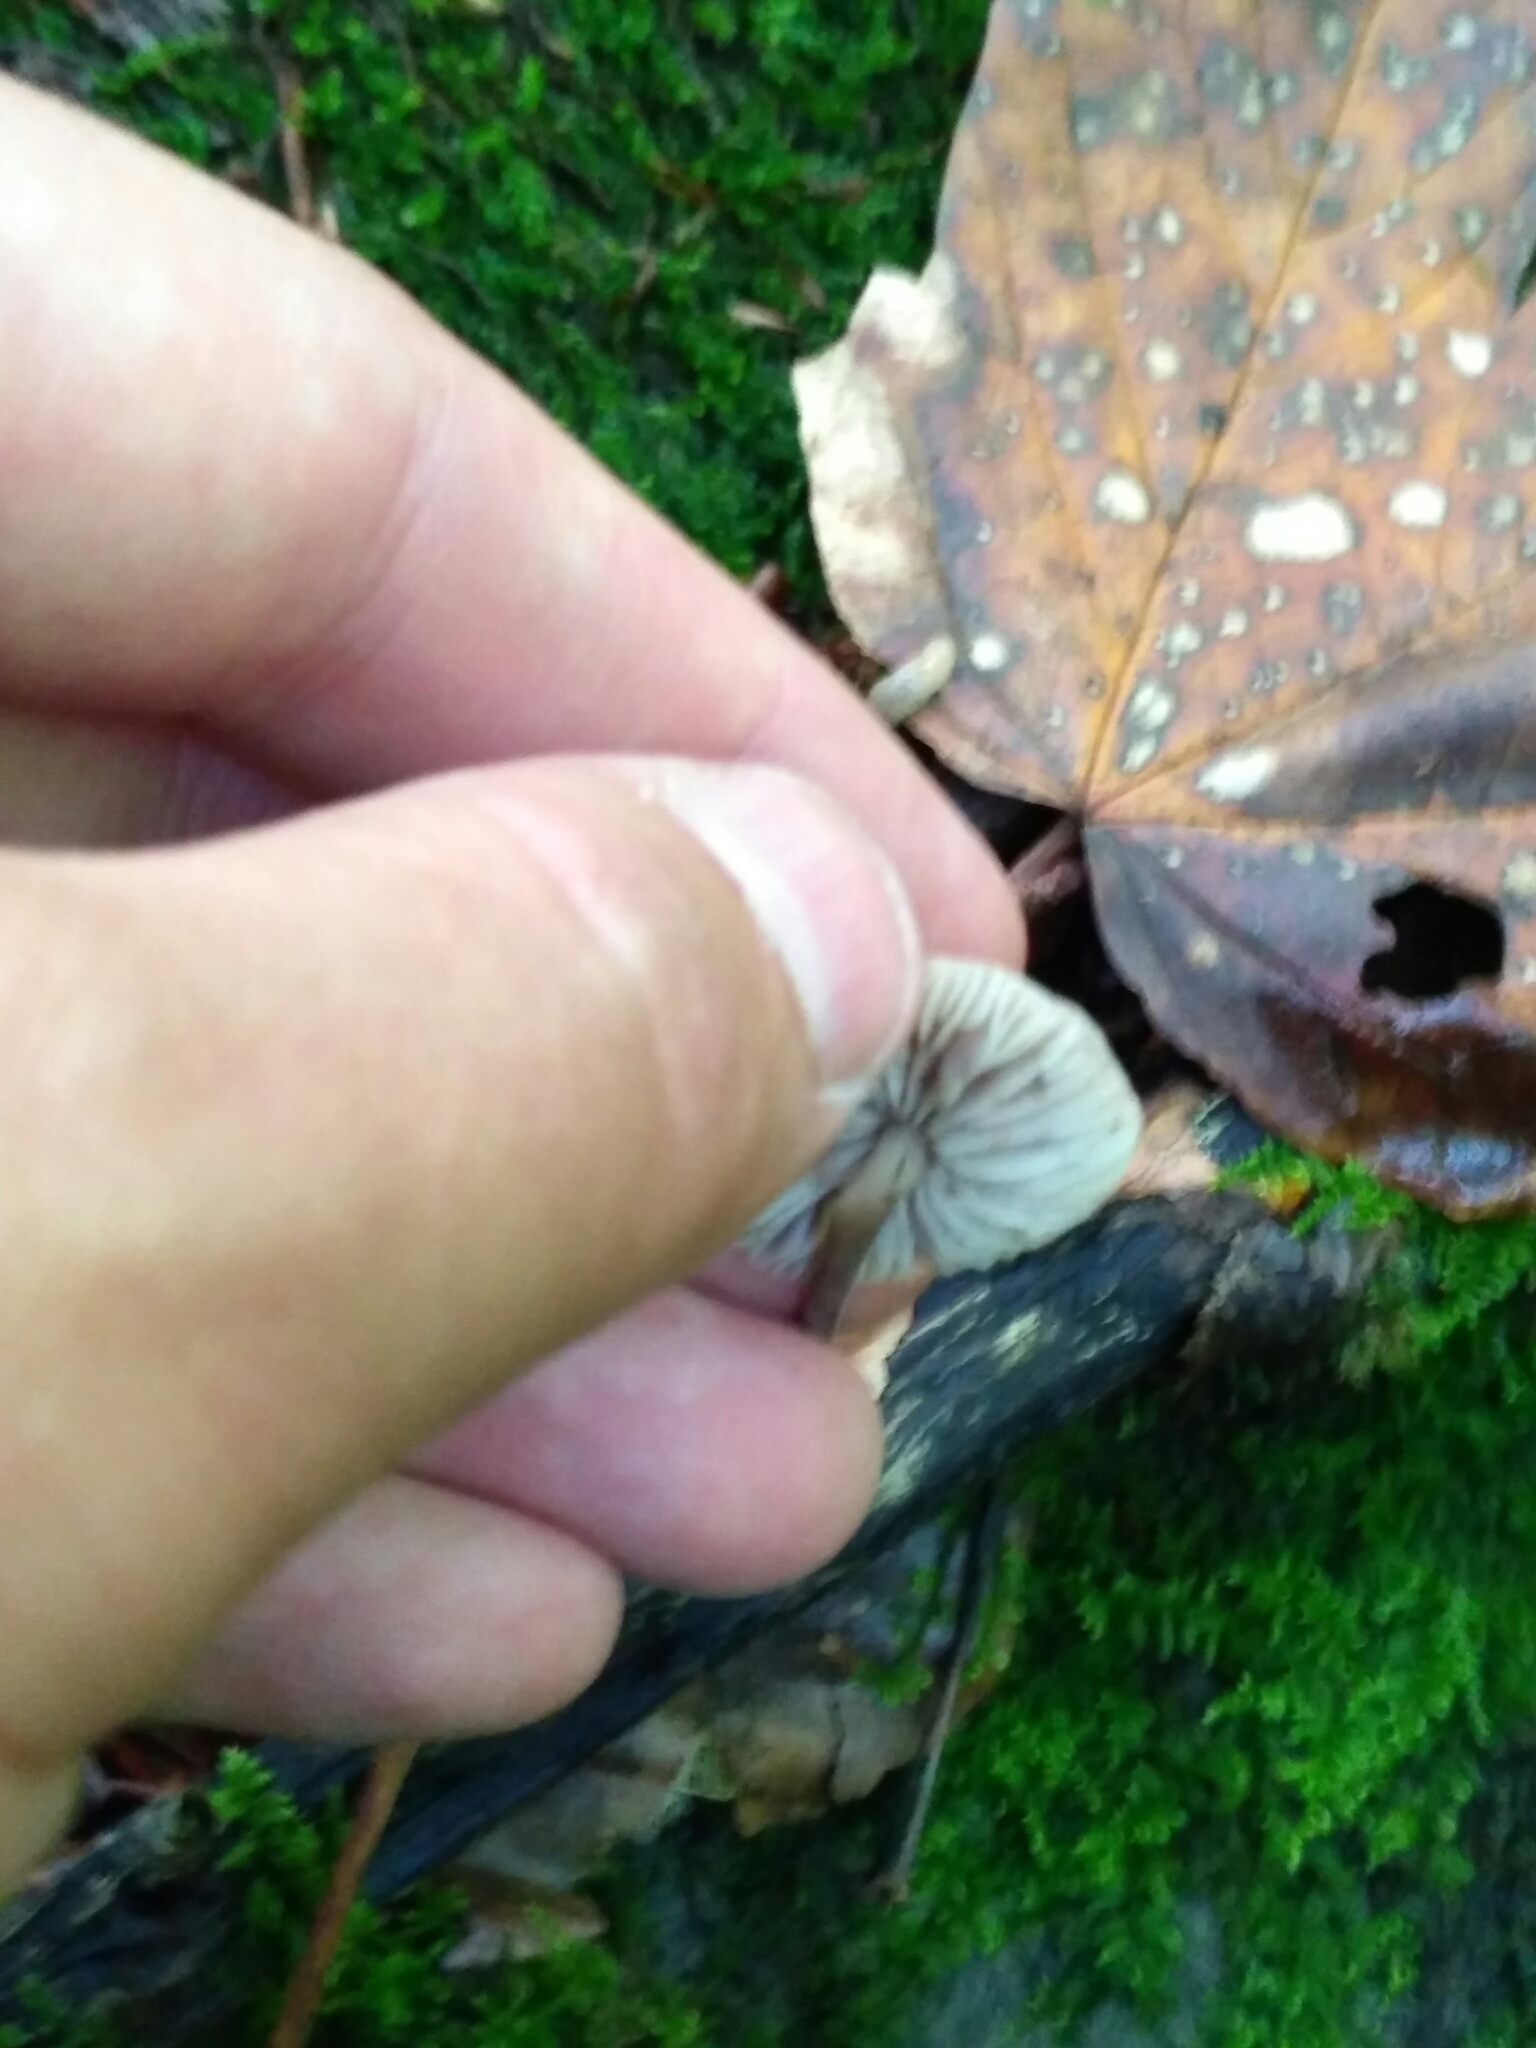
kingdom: Fungi
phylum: Basidiomycota
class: Agaricomycetes
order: Agaricales
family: Omphalotaceae
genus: Mycetinis
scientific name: Mycetinis alliaceus
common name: Garlic parachute
